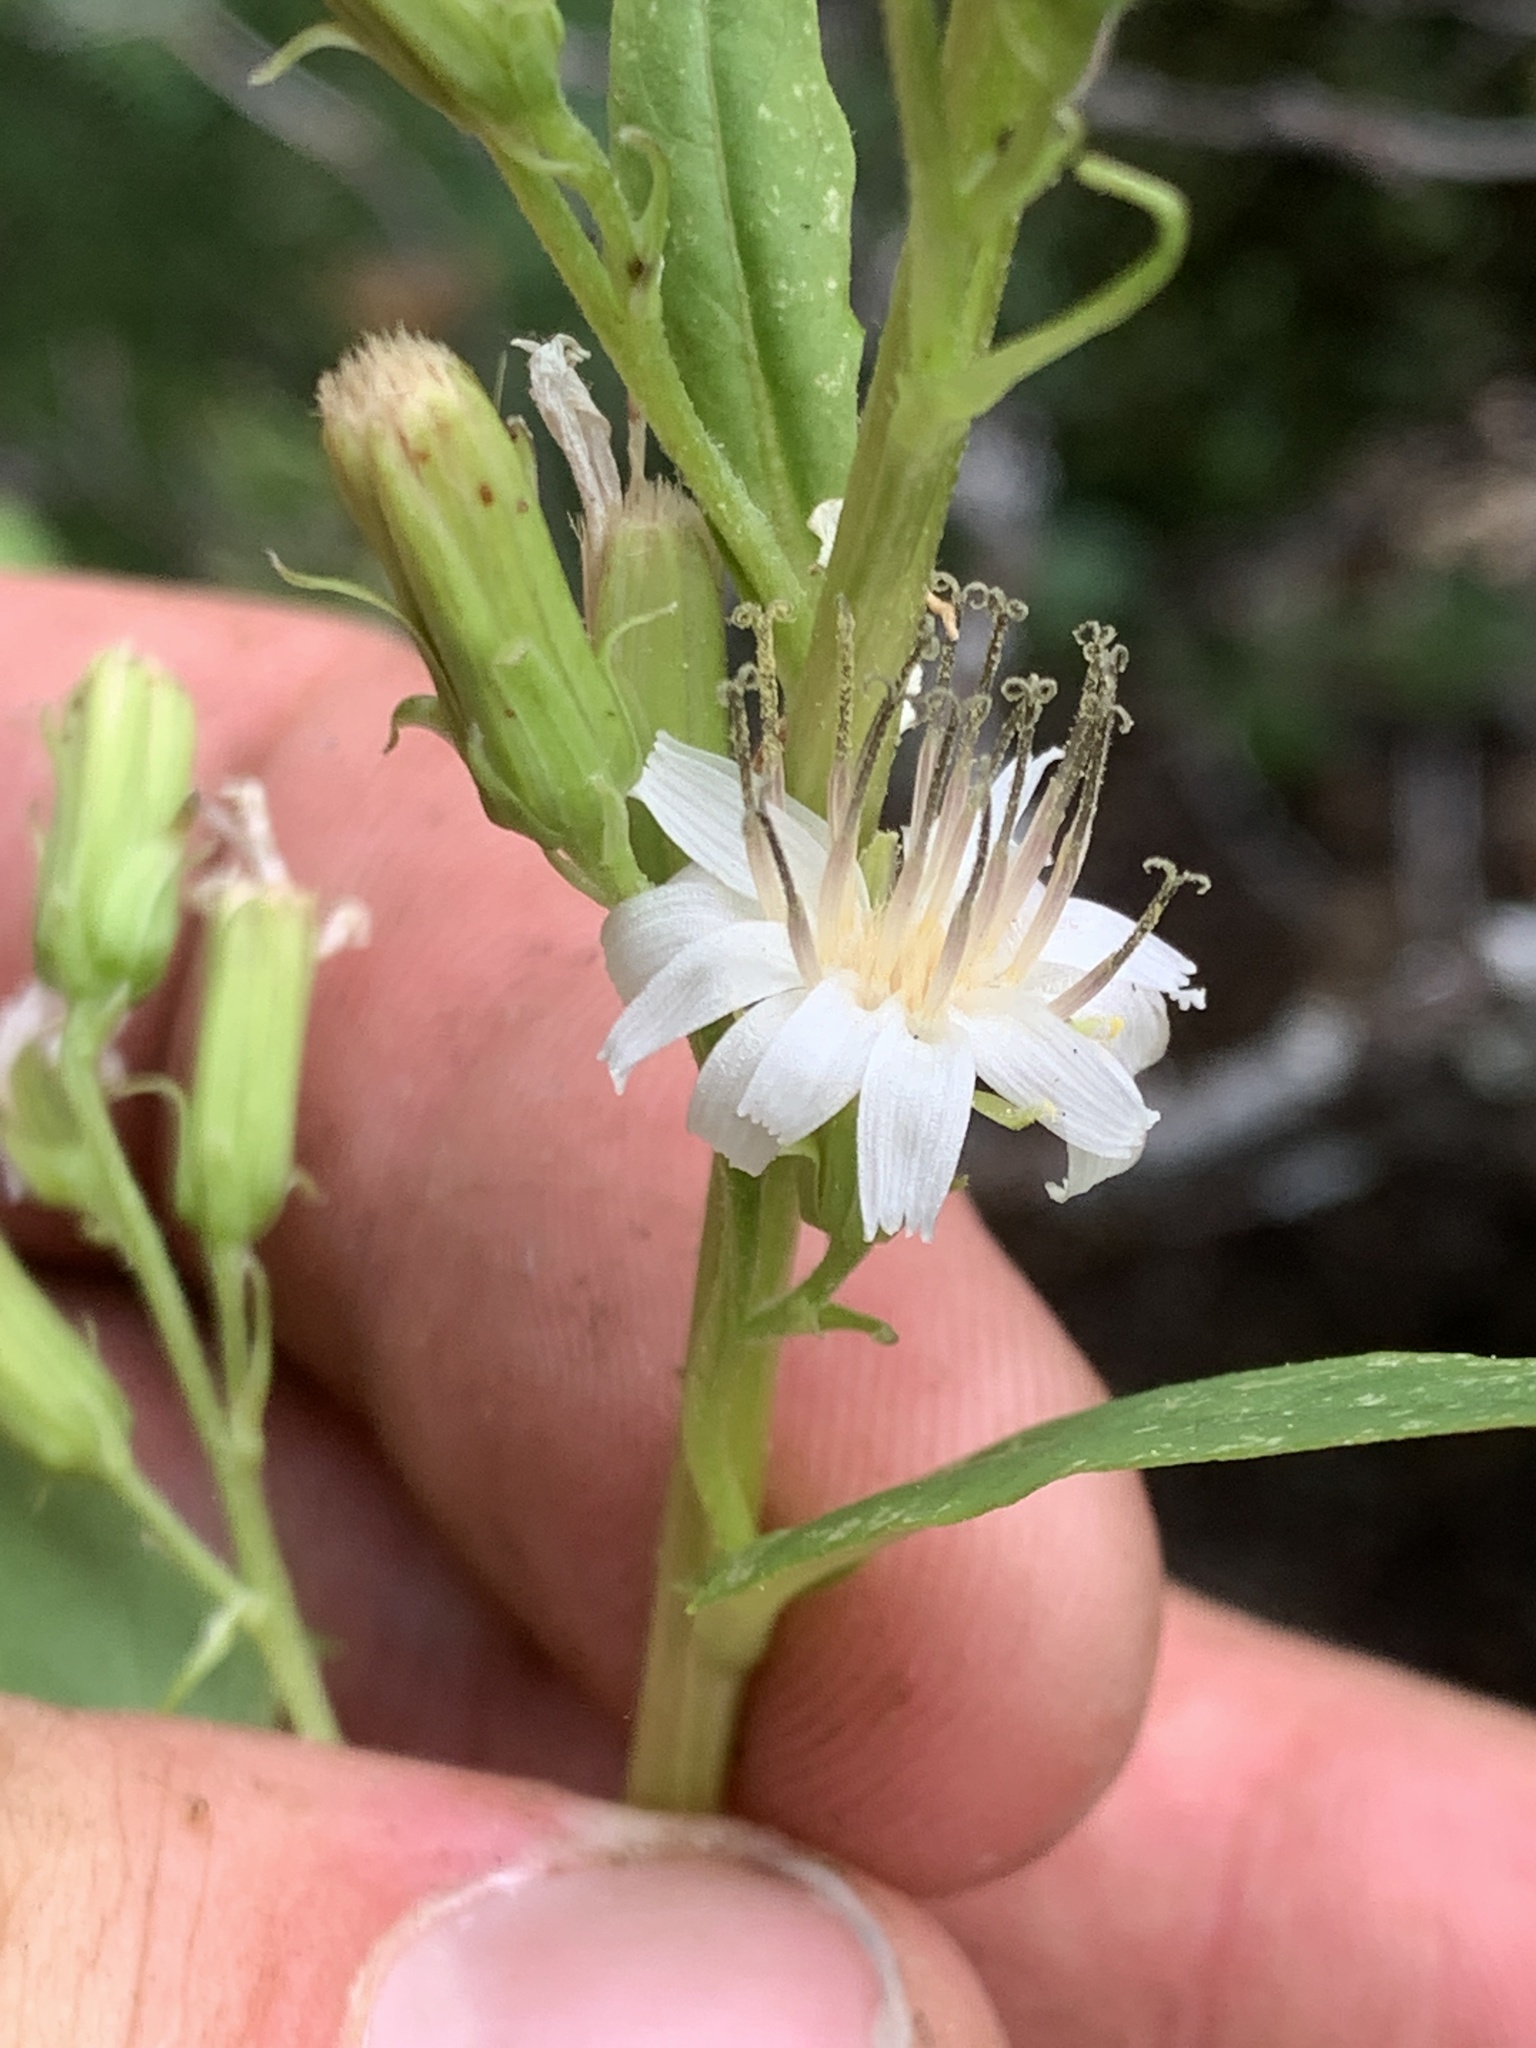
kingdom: Plantae
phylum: Tracheophyta
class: Magnoliopsida
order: Asterales
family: Asteraceae
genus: Nabalus
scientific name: Nabalus sagittatus
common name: Arrowleaf snakeroot
